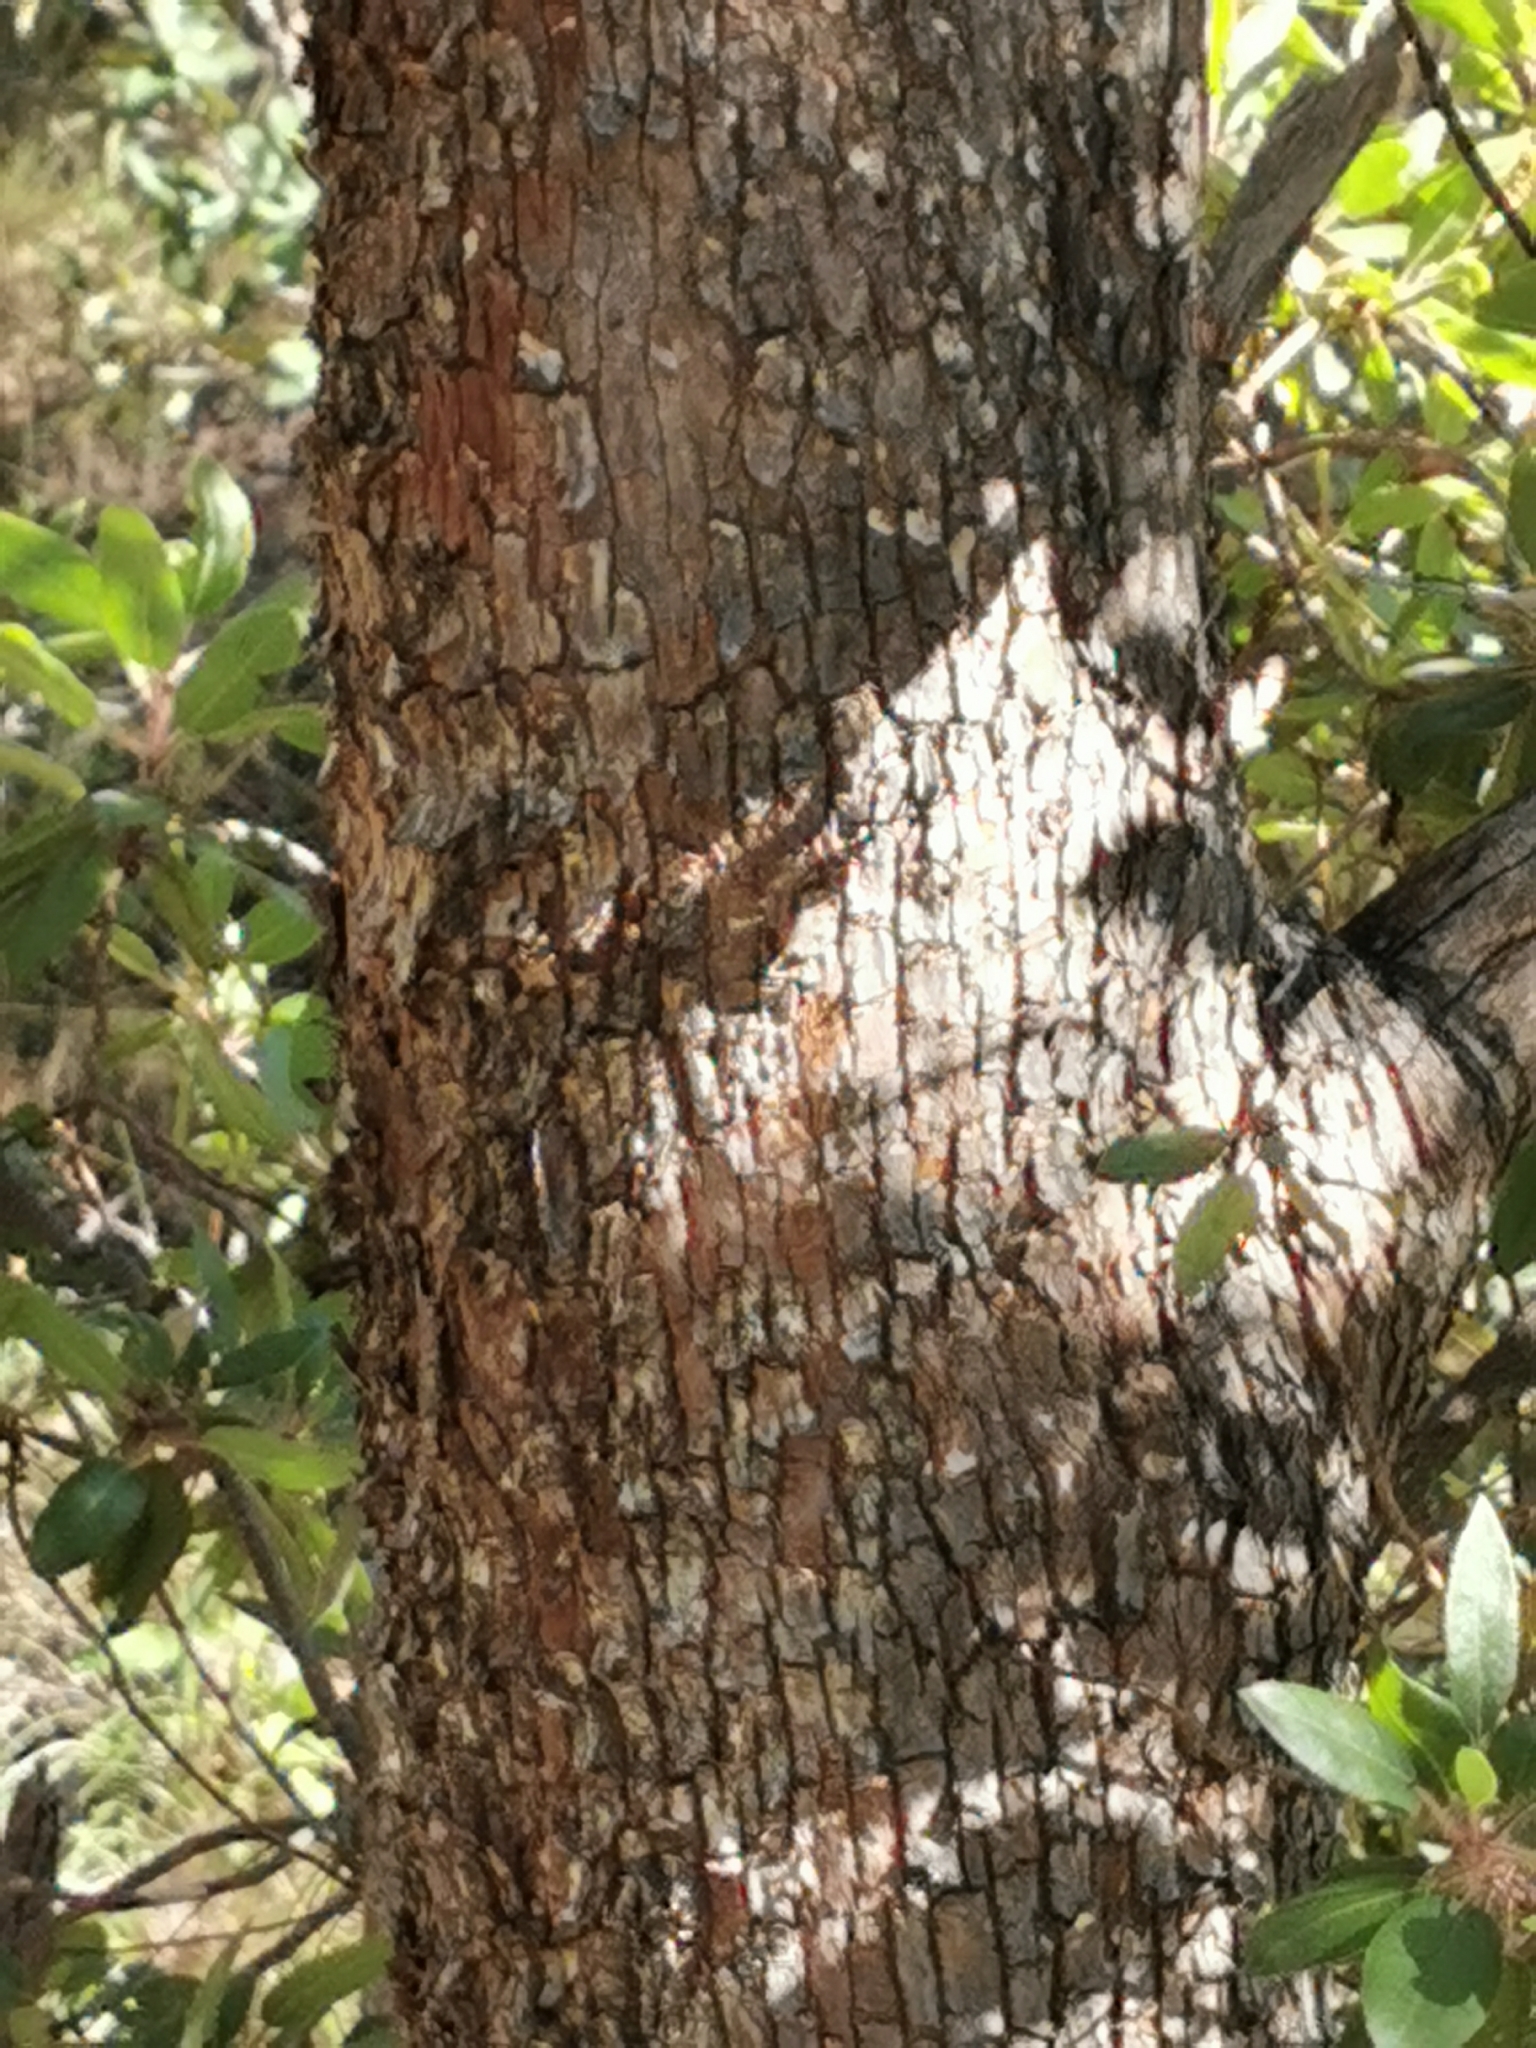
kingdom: Plantae
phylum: Tracheophyta
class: Magnoliopsida
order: Ericales
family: Ericaceae
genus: Arbutus
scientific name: Arbutus tessellata
